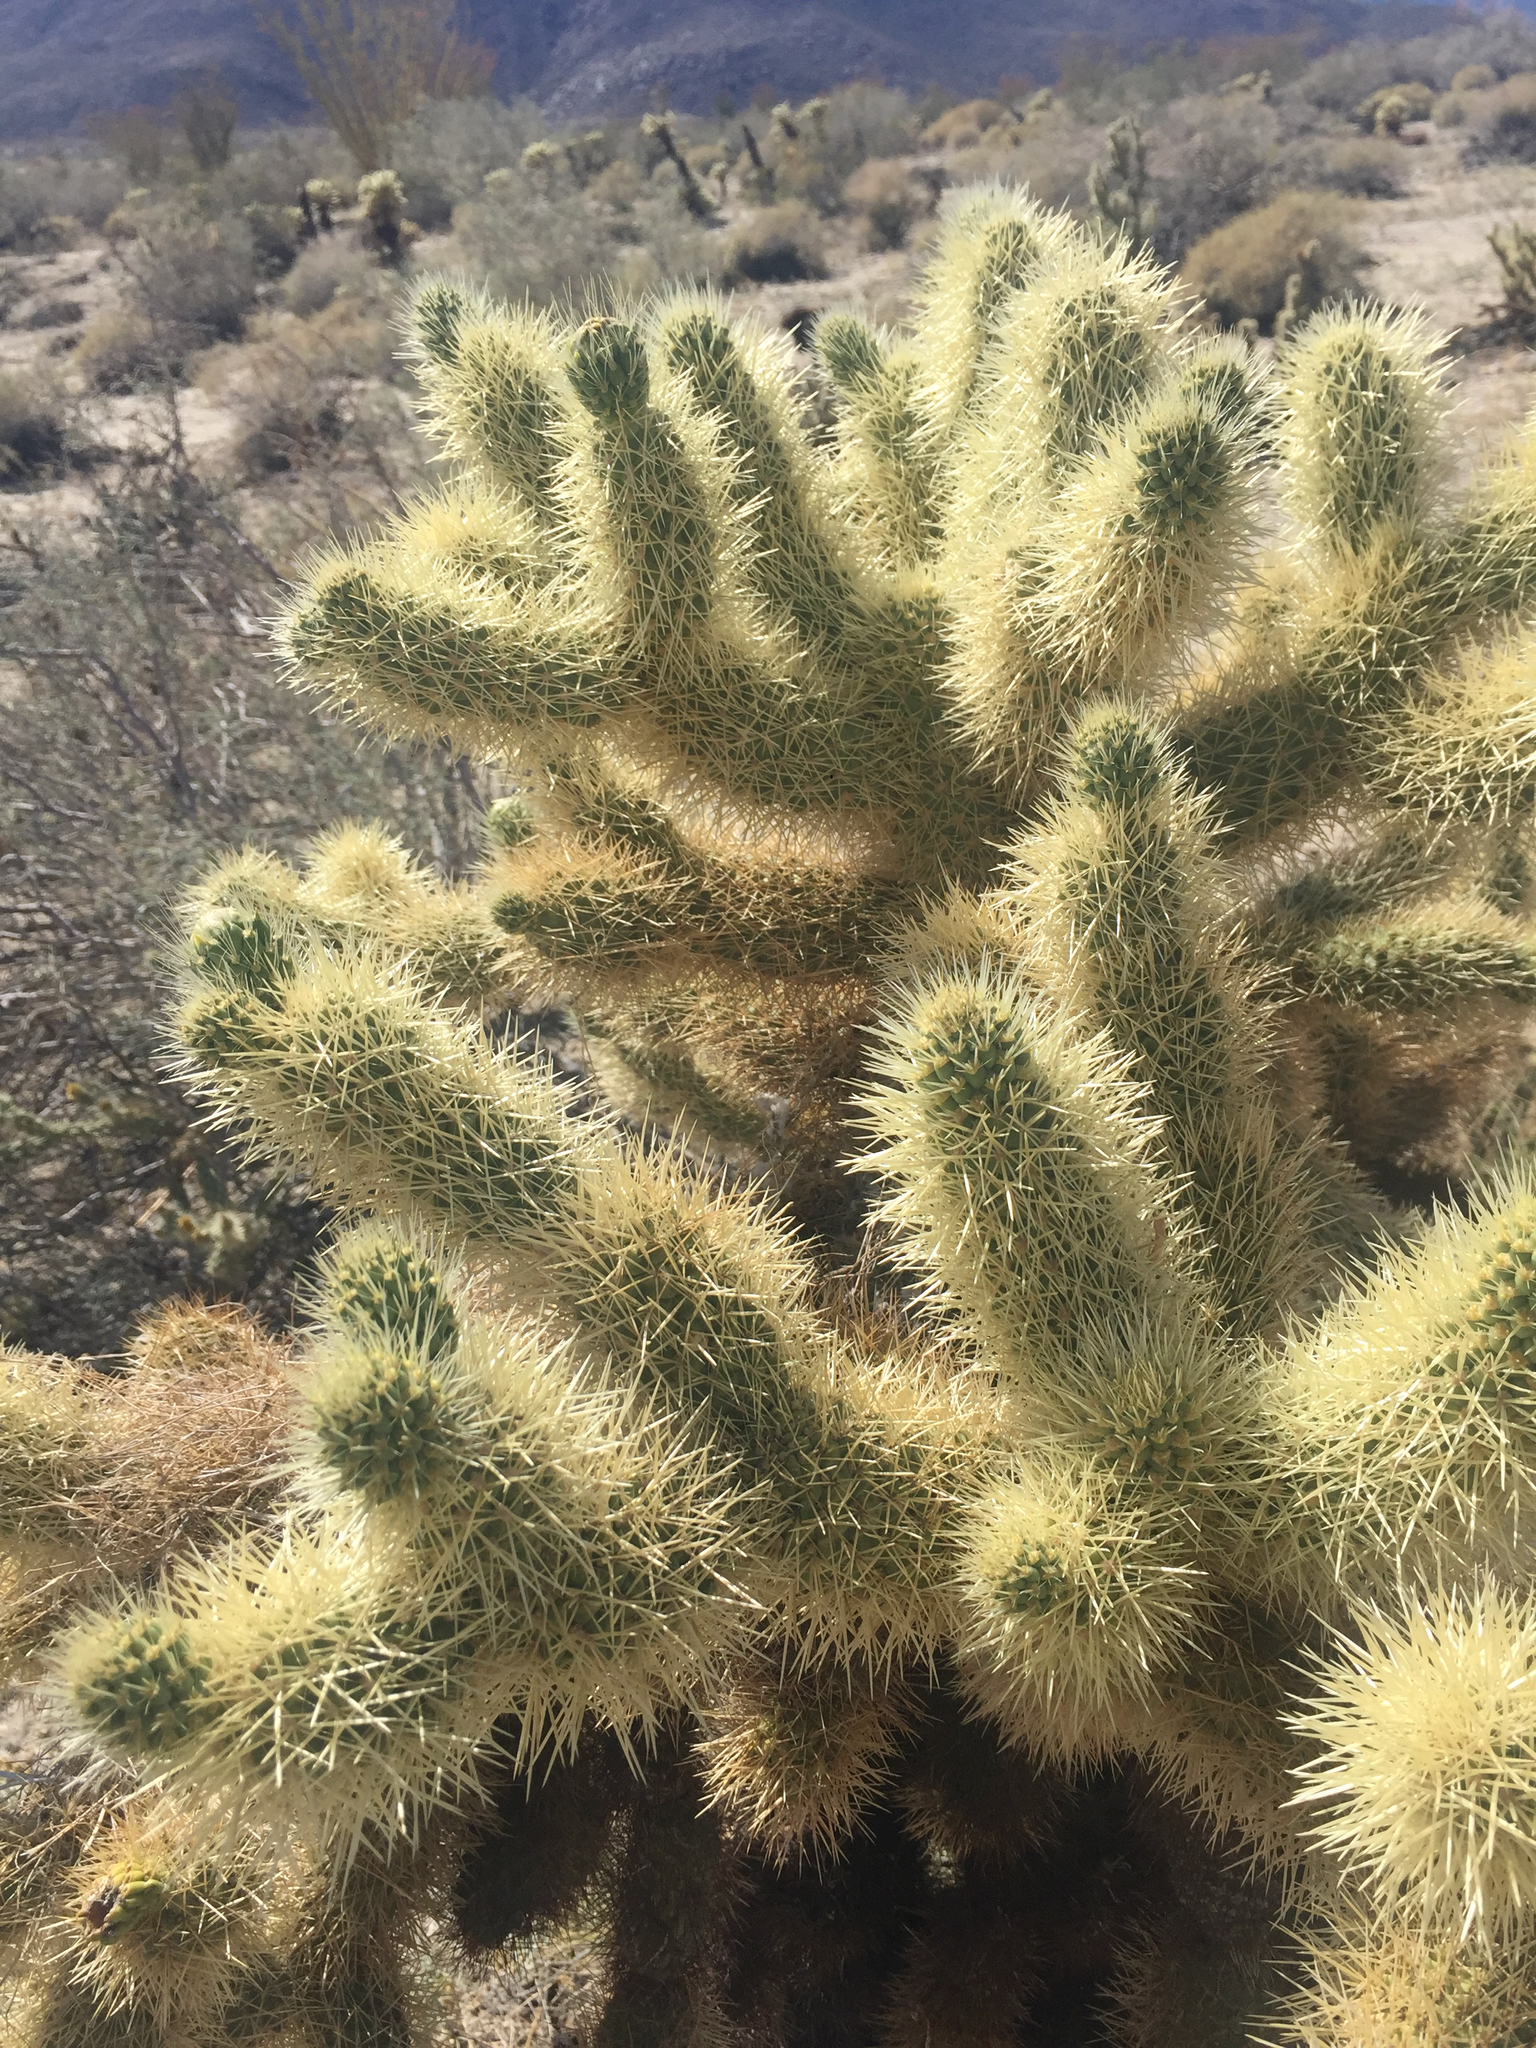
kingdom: Plantae
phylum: Tracheophyta
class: Magnoliopsida
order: Caryophyllales
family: Cactaceae
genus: Cylindropuntia
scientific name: Cylindropuntia fosbergii
